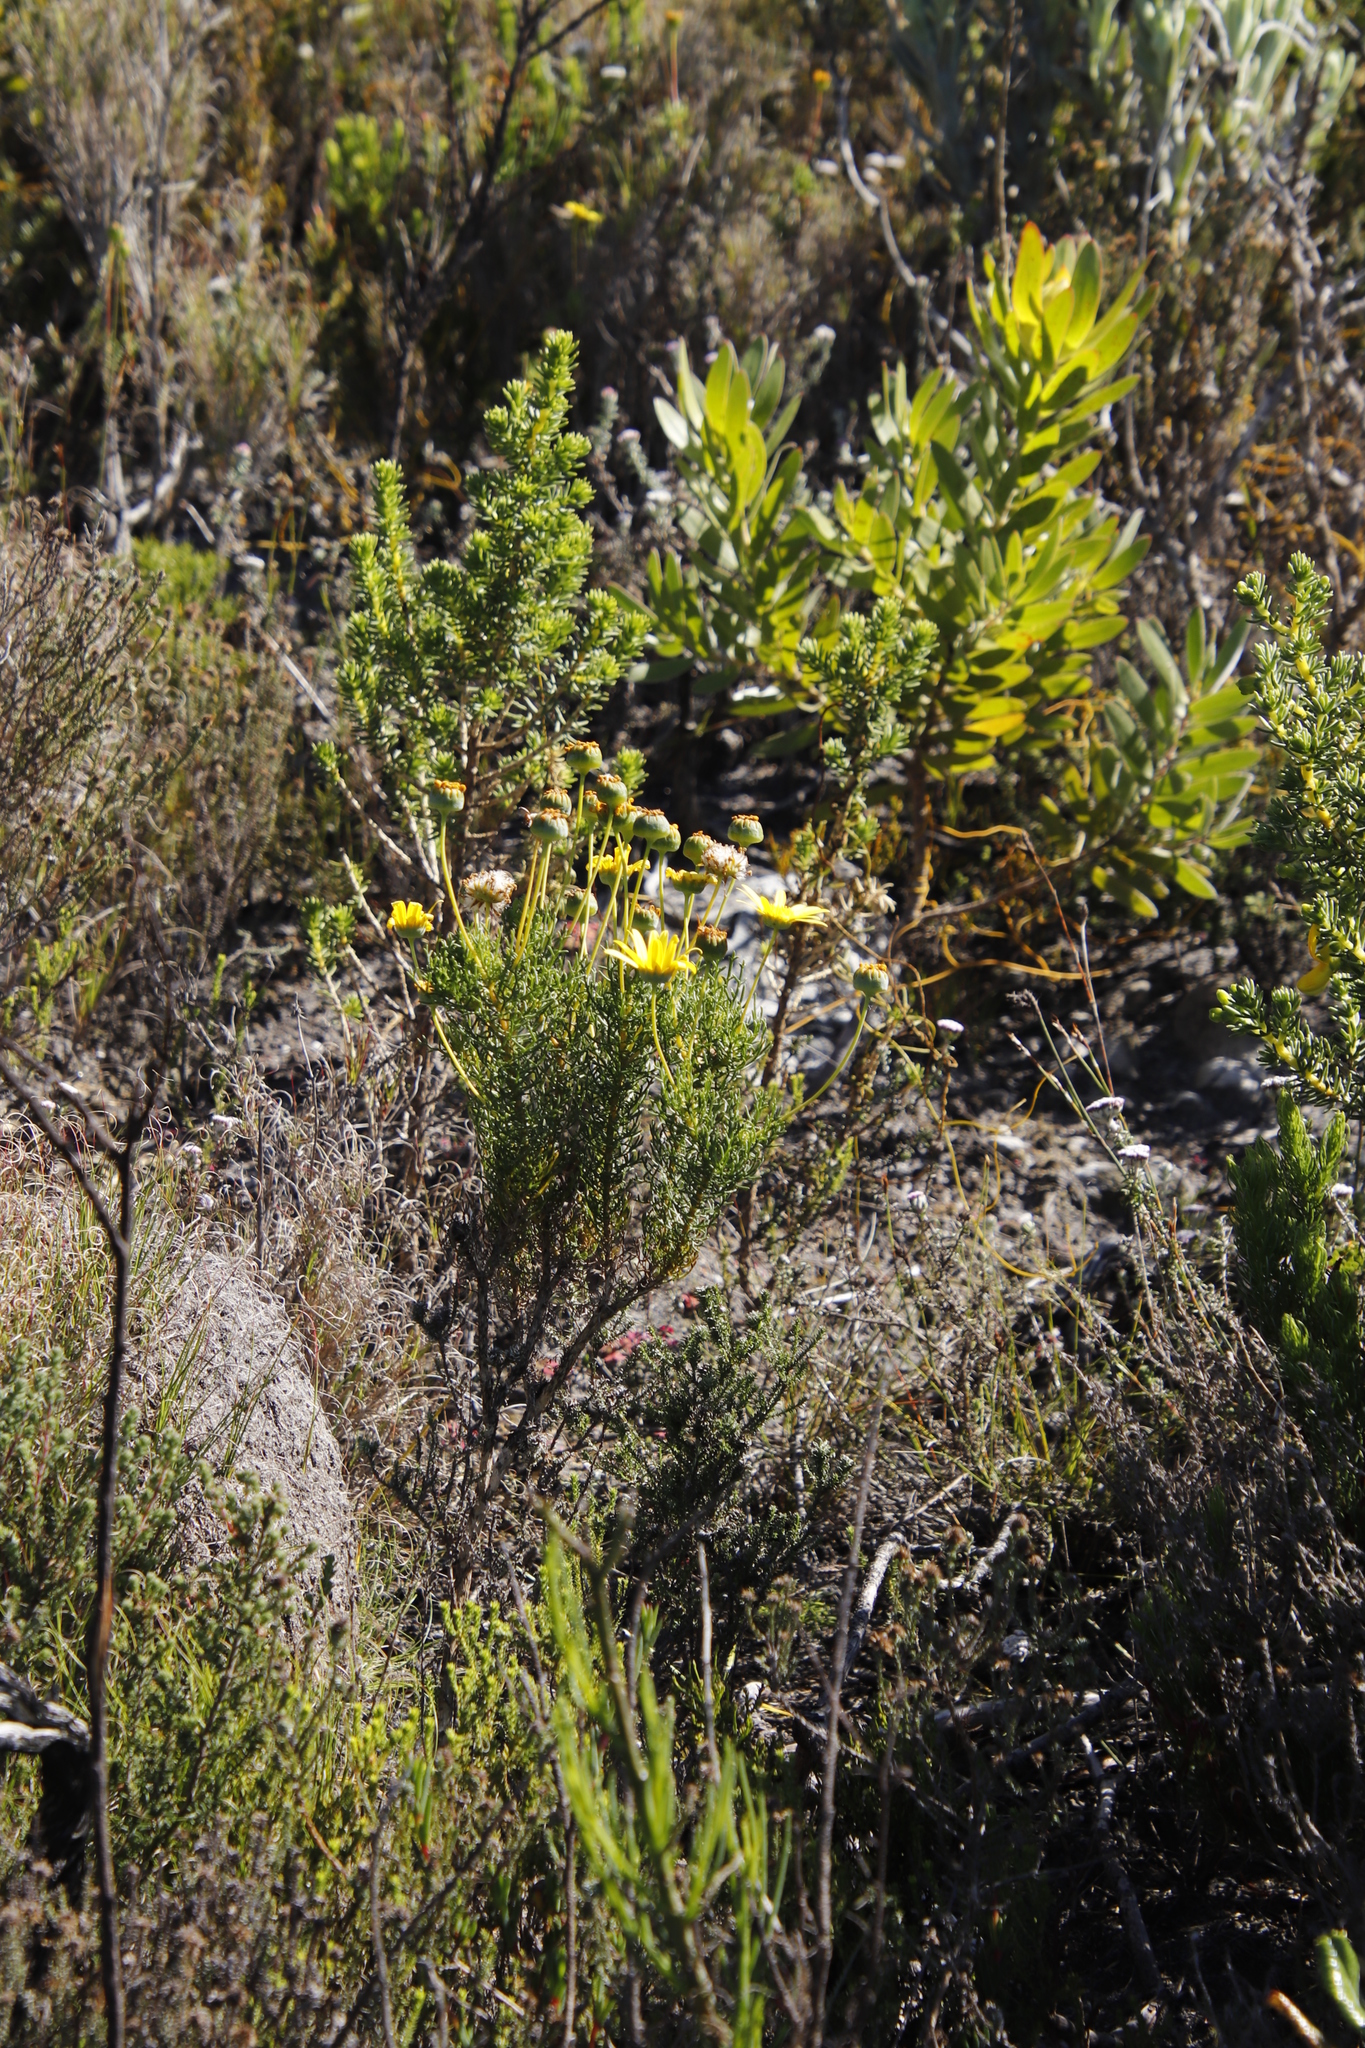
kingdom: Plantae
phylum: Tracheophyta
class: Magnoliopsida
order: Asterales
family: Asteraceae
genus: Euryops
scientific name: Euryops abrotanifolius
